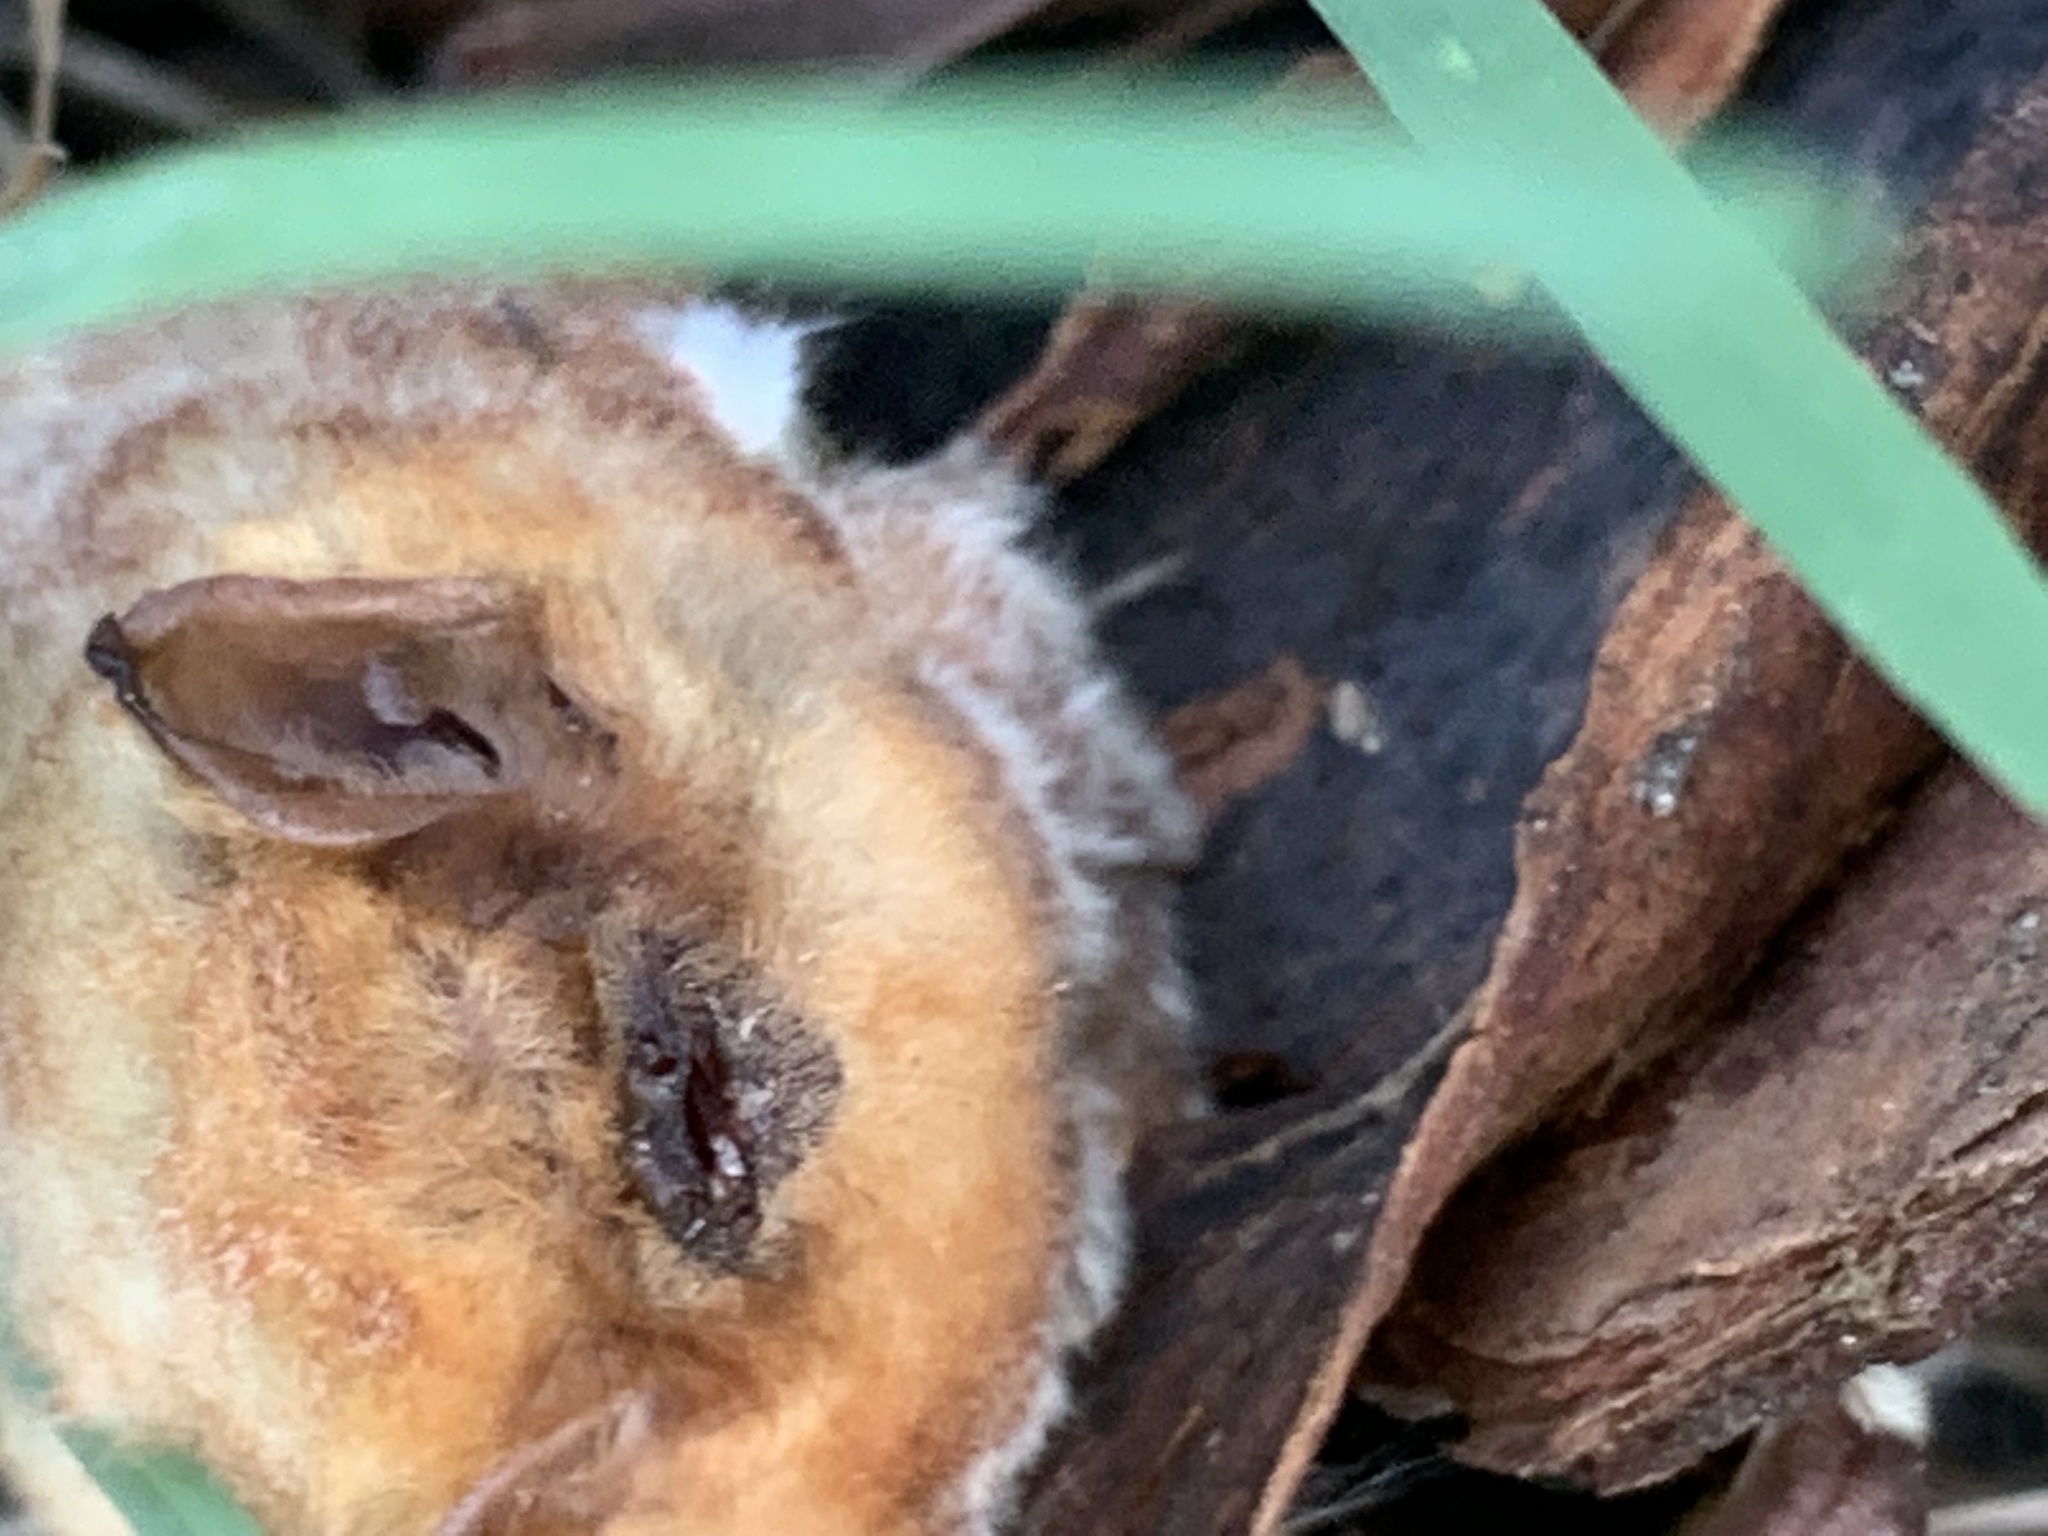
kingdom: Animalia
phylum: Chordata
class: Mammalia
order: Chiroptera
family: Vespertilionidae
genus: Lasiurus
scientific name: Lasiurus borealis
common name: Eastern red bat
